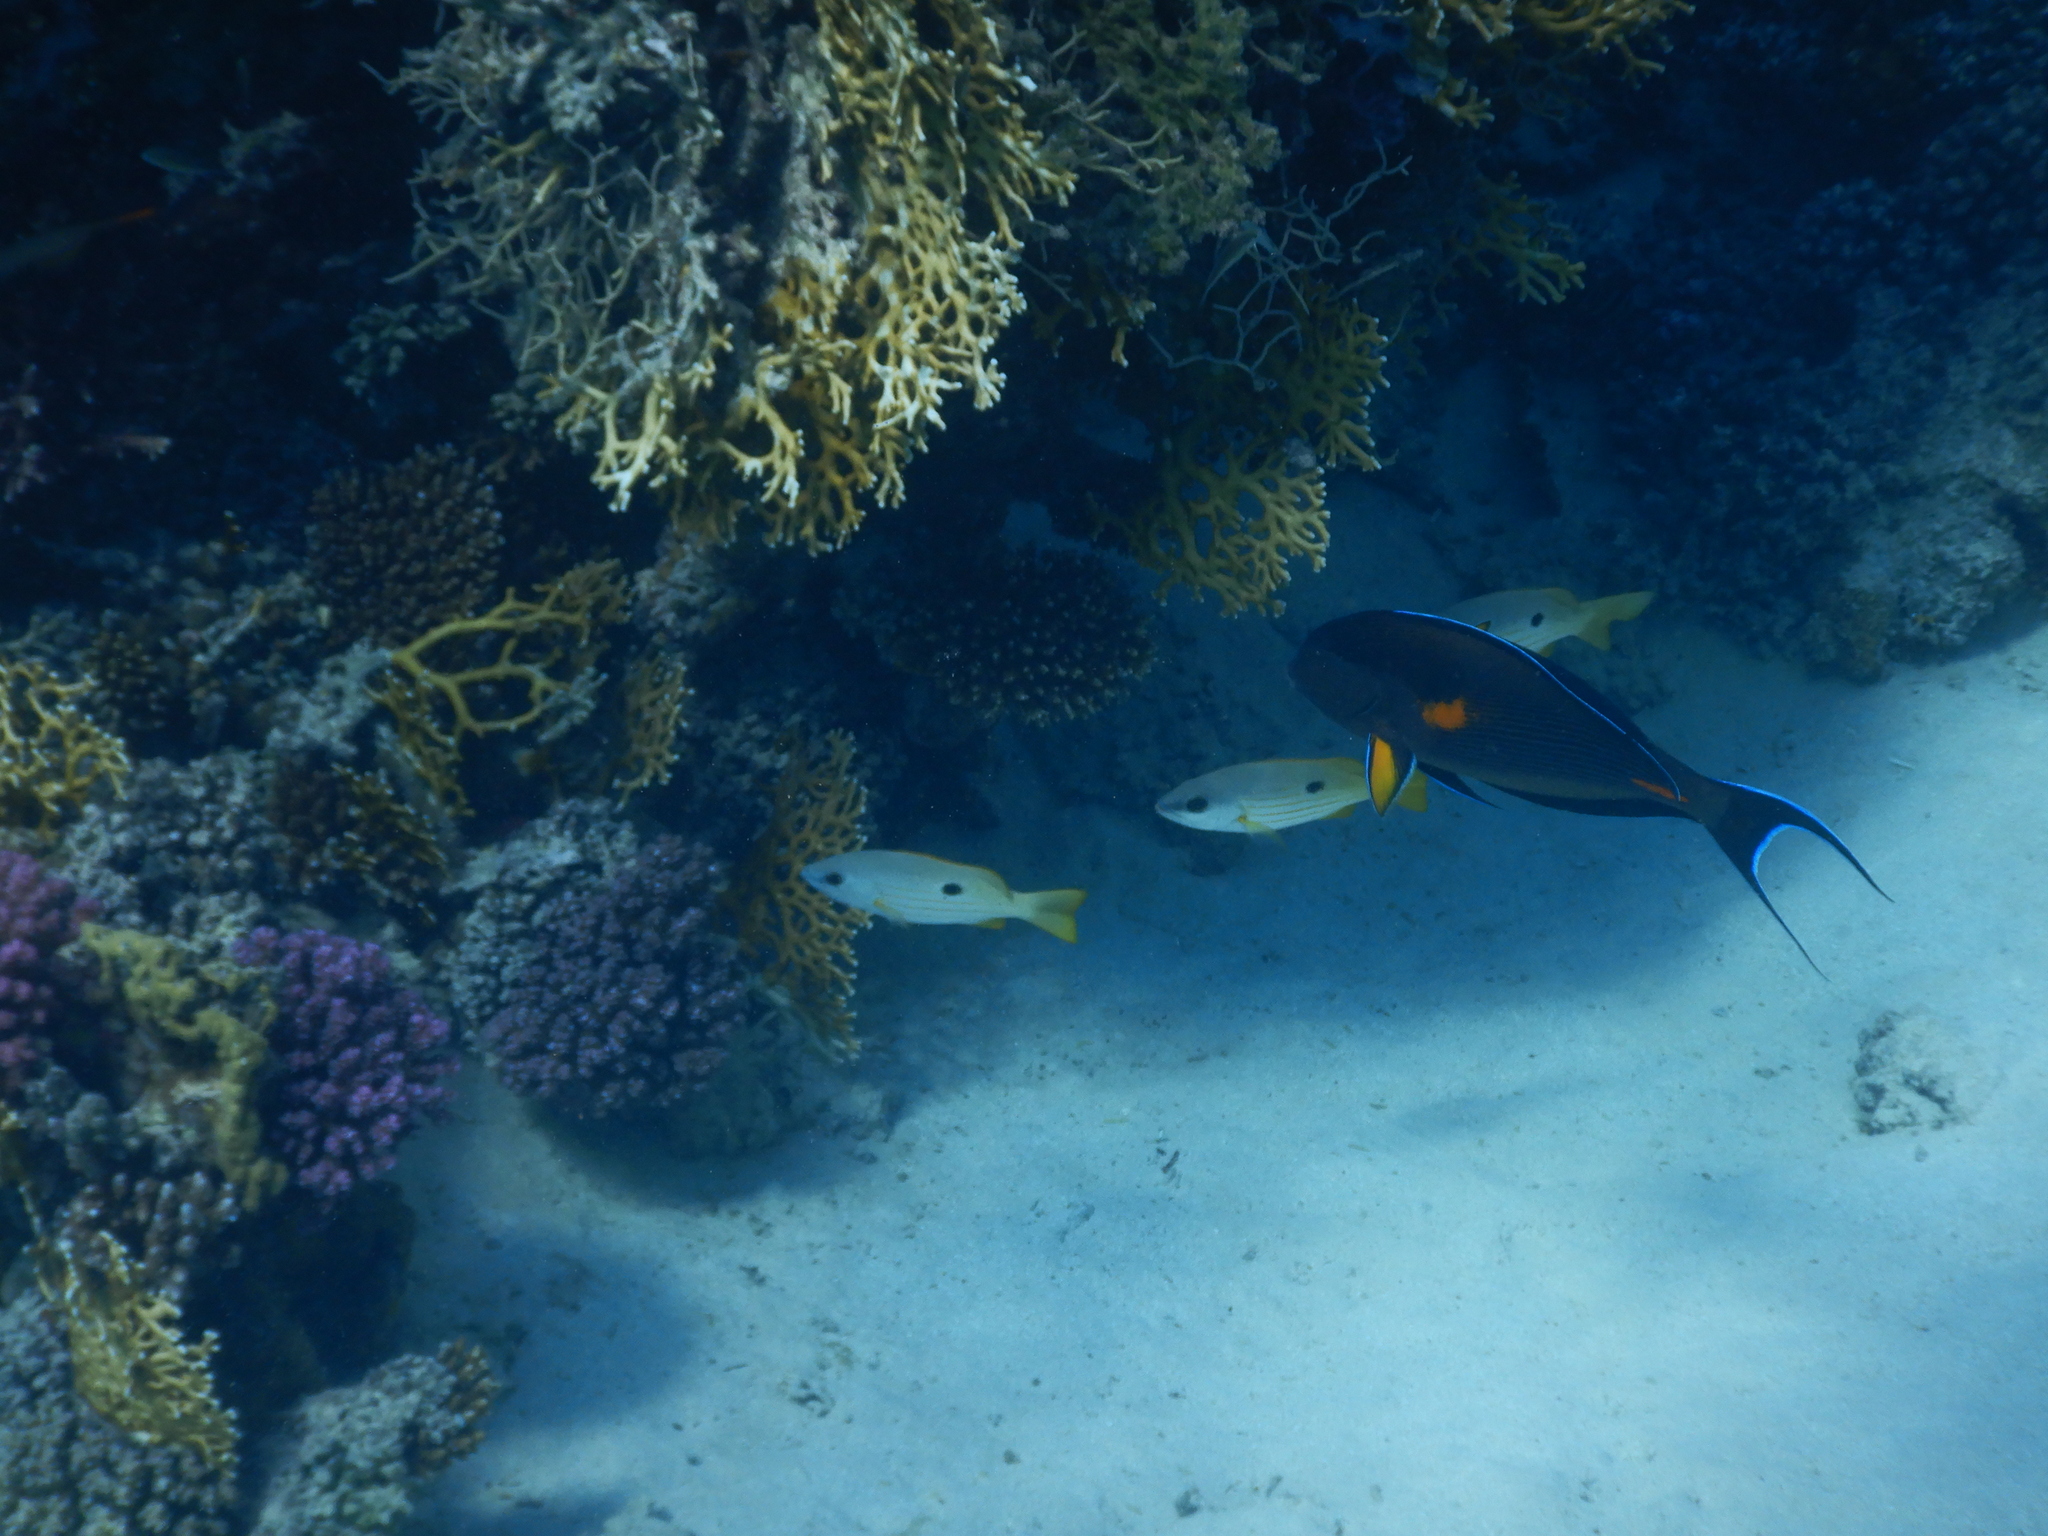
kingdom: Animalia
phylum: Chordata
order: Perciformes
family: Acanthuridae
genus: Acanthurus
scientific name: Acanthurus sohal
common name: Red sea surgeonfish
